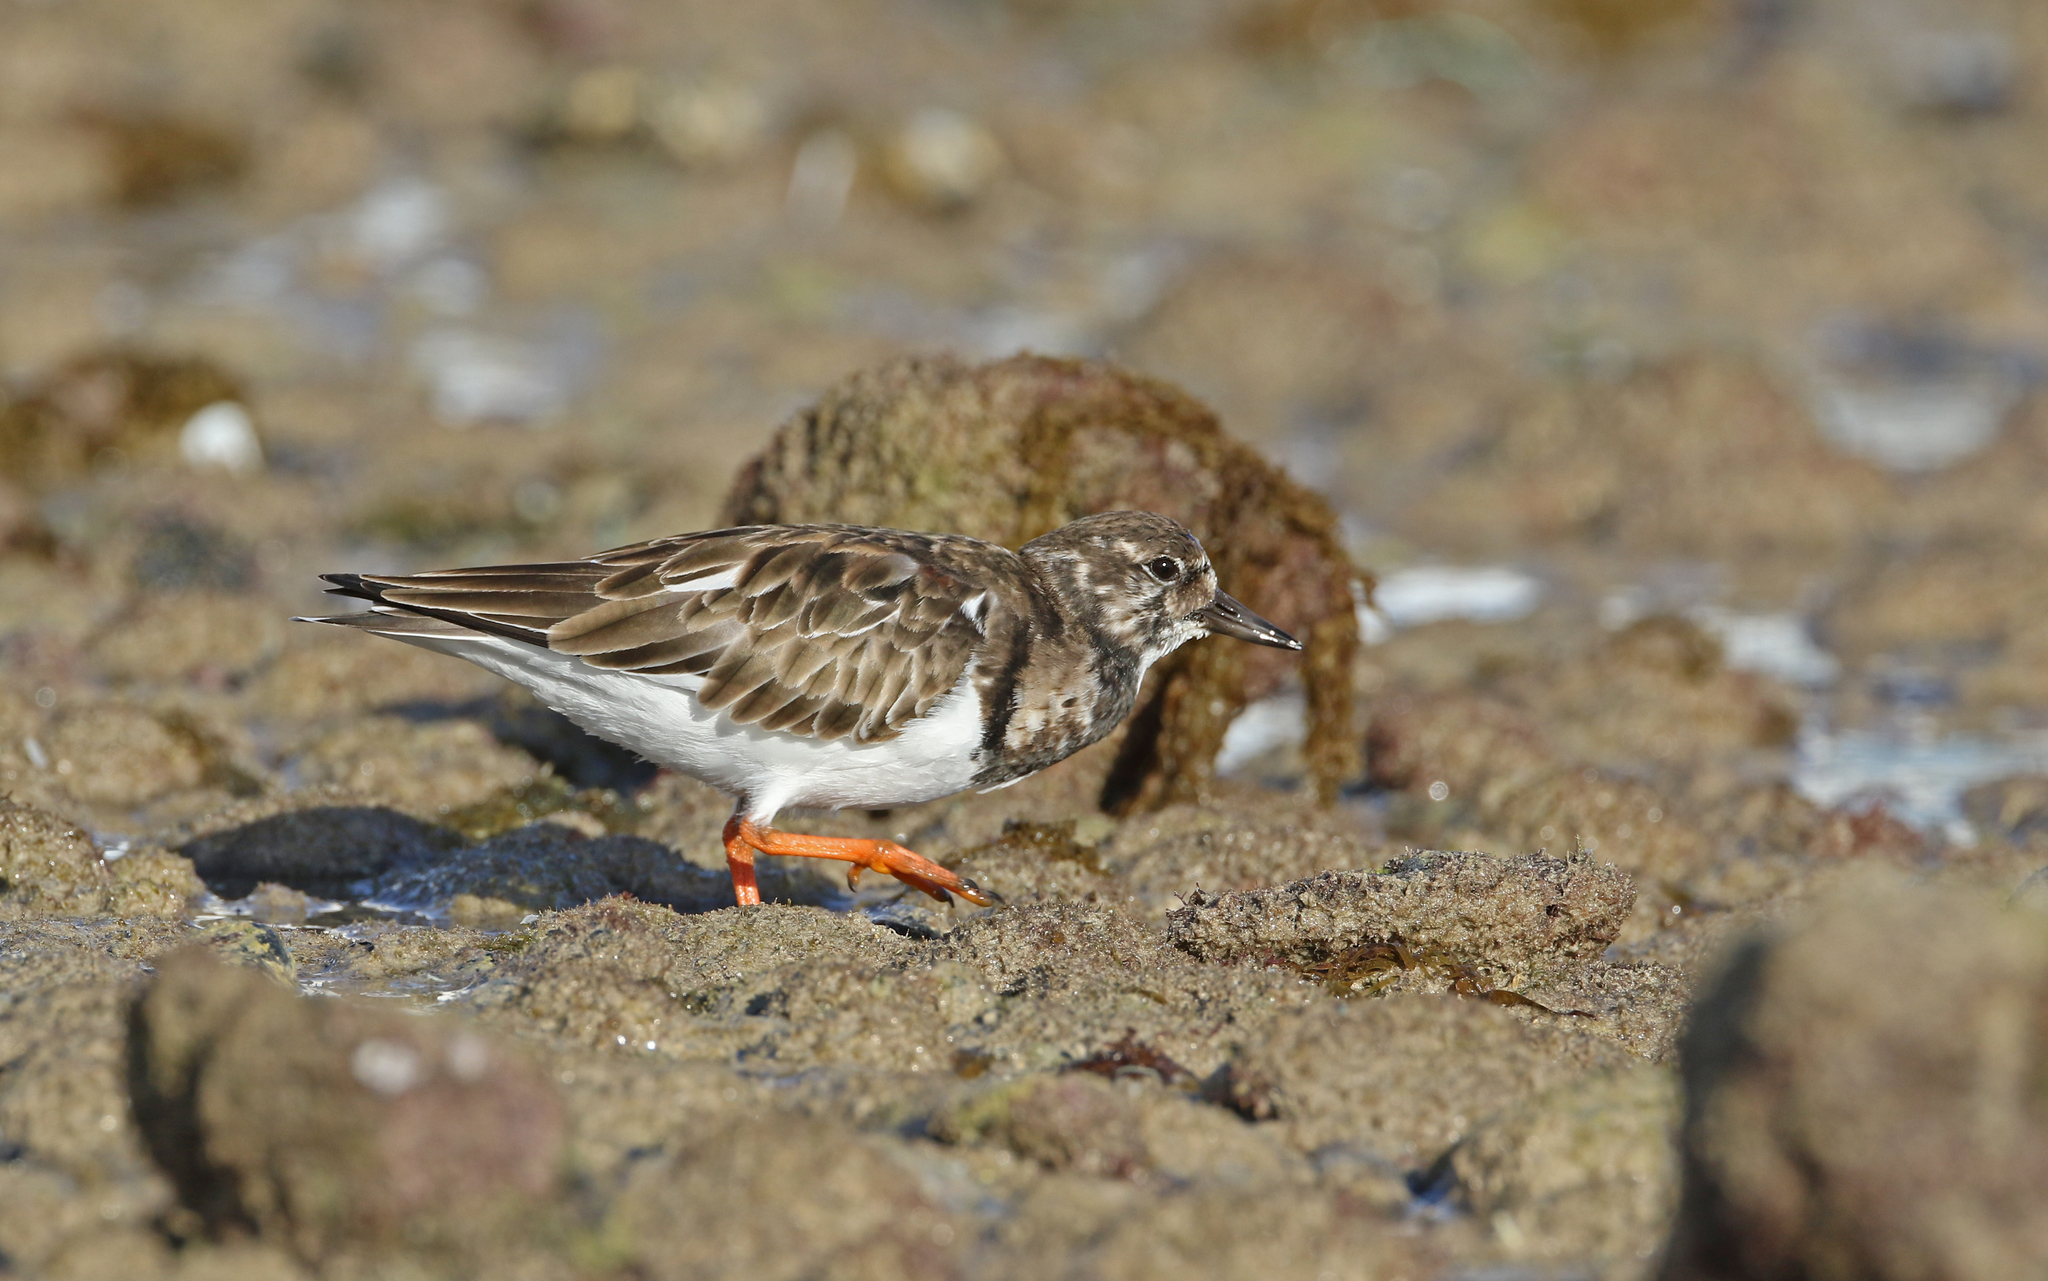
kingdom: Animalia
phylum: Chordata
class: Aves
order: Charadriiformes
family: Scolopacidae
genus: Arenaria
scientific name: Arenaria interpres
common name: Ruddy turnstone
